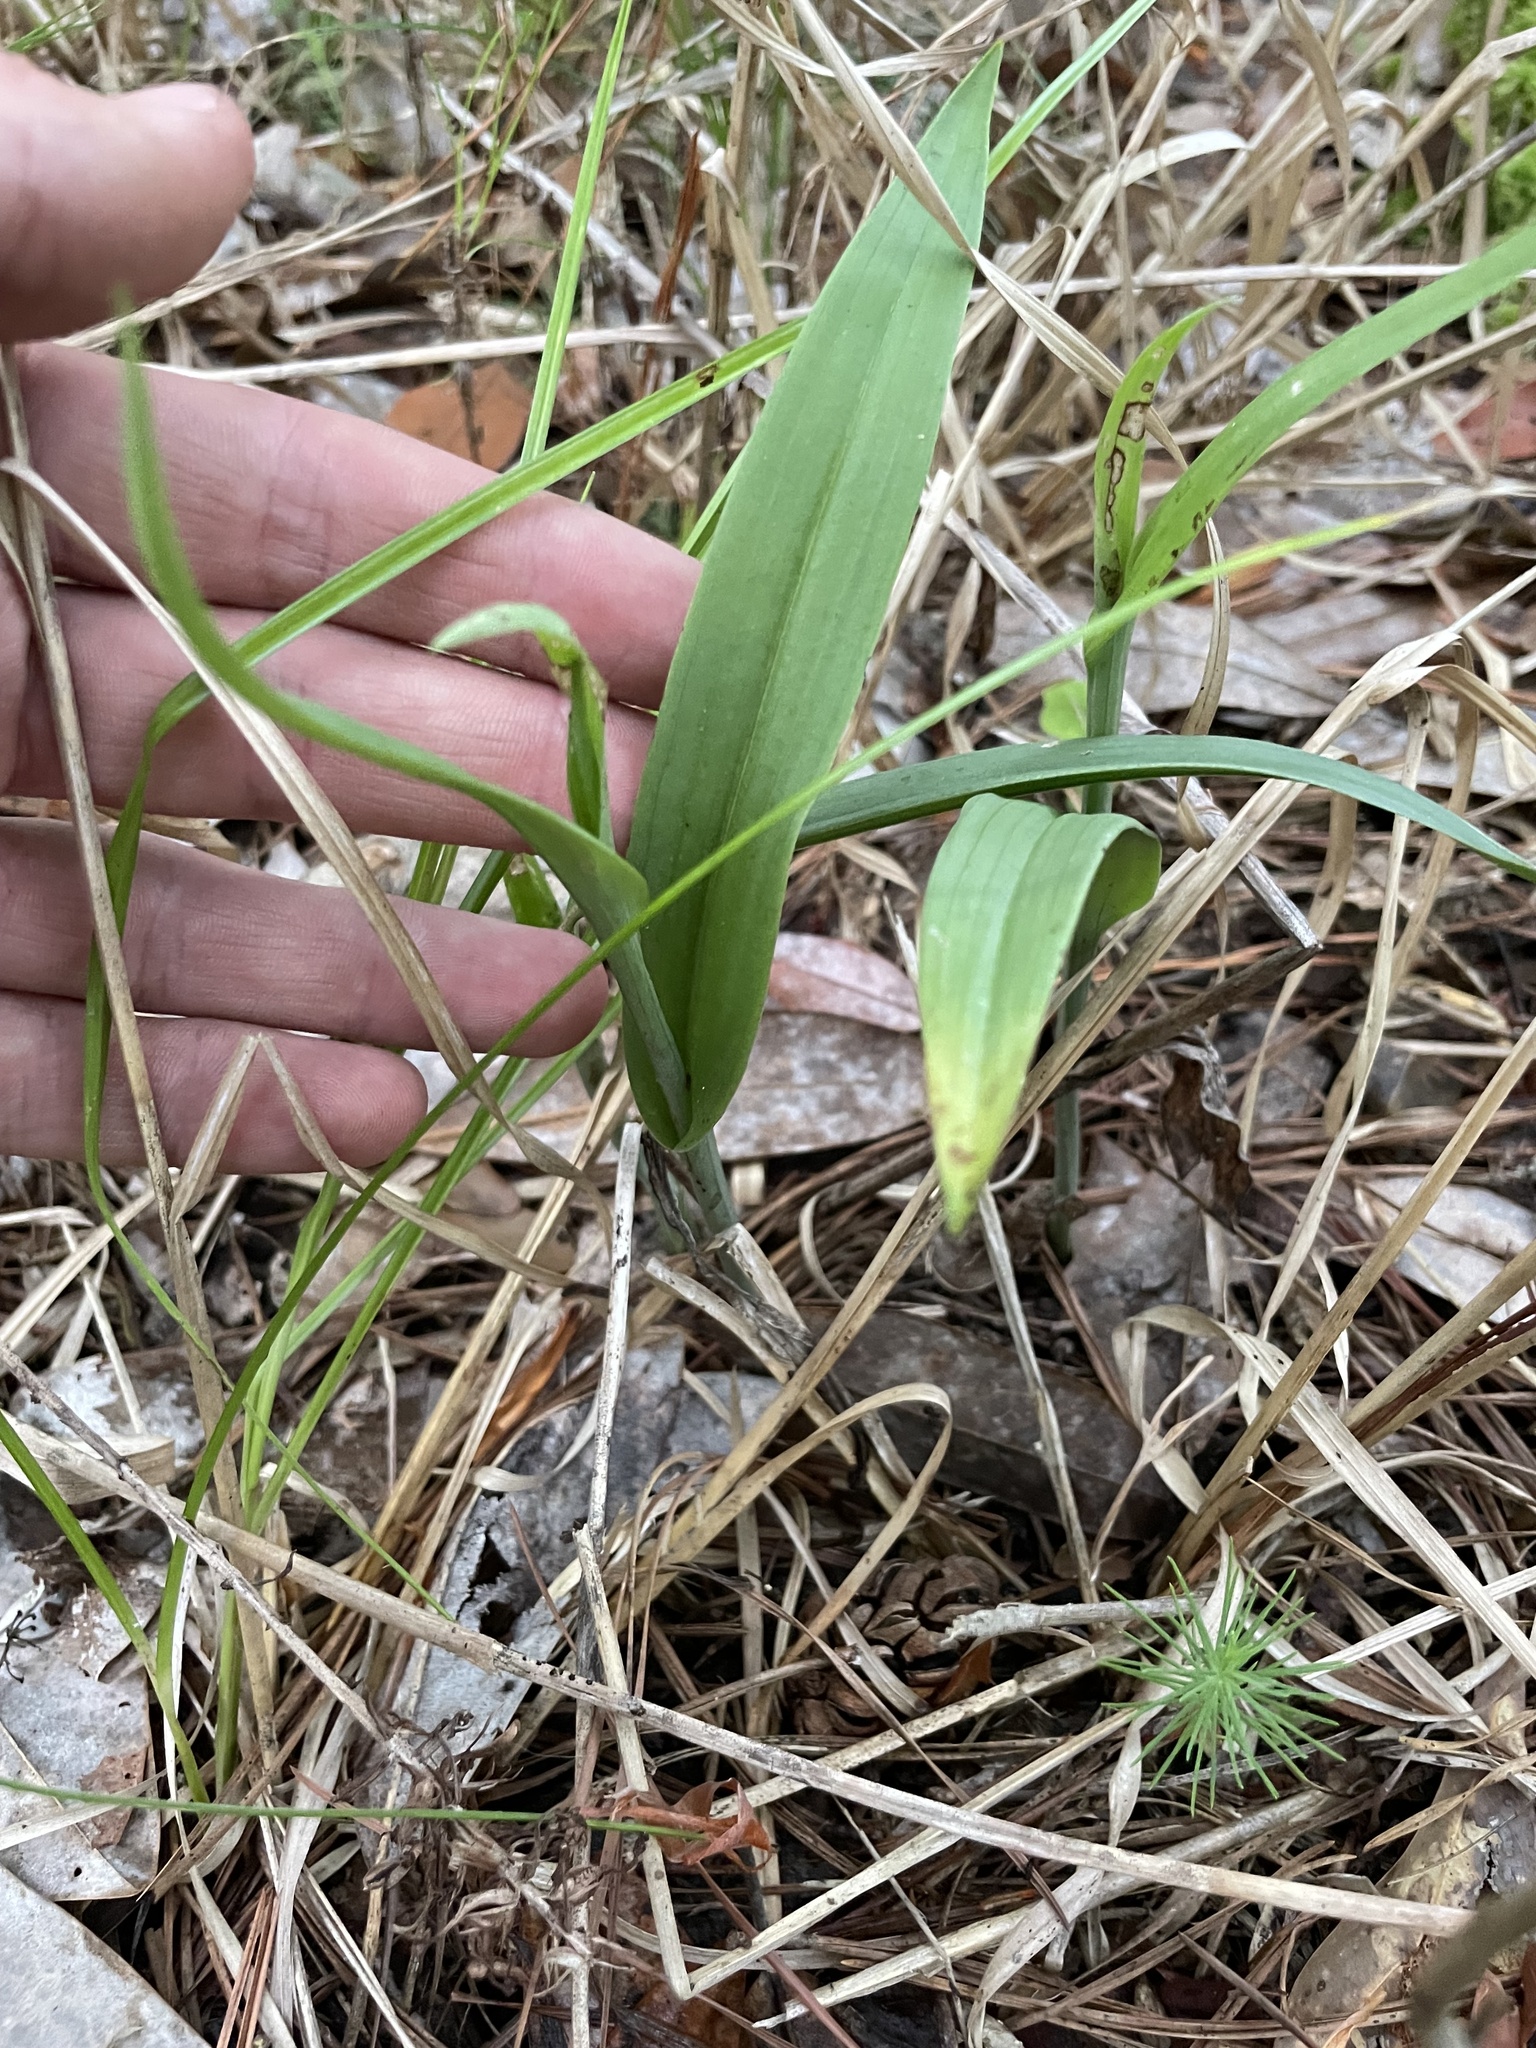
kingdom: Plantae
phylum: Tracheophyta
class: Liliopsida
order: Asparagales
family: Orchidaceae
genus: Platanthera
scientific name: Platanthera cristata
